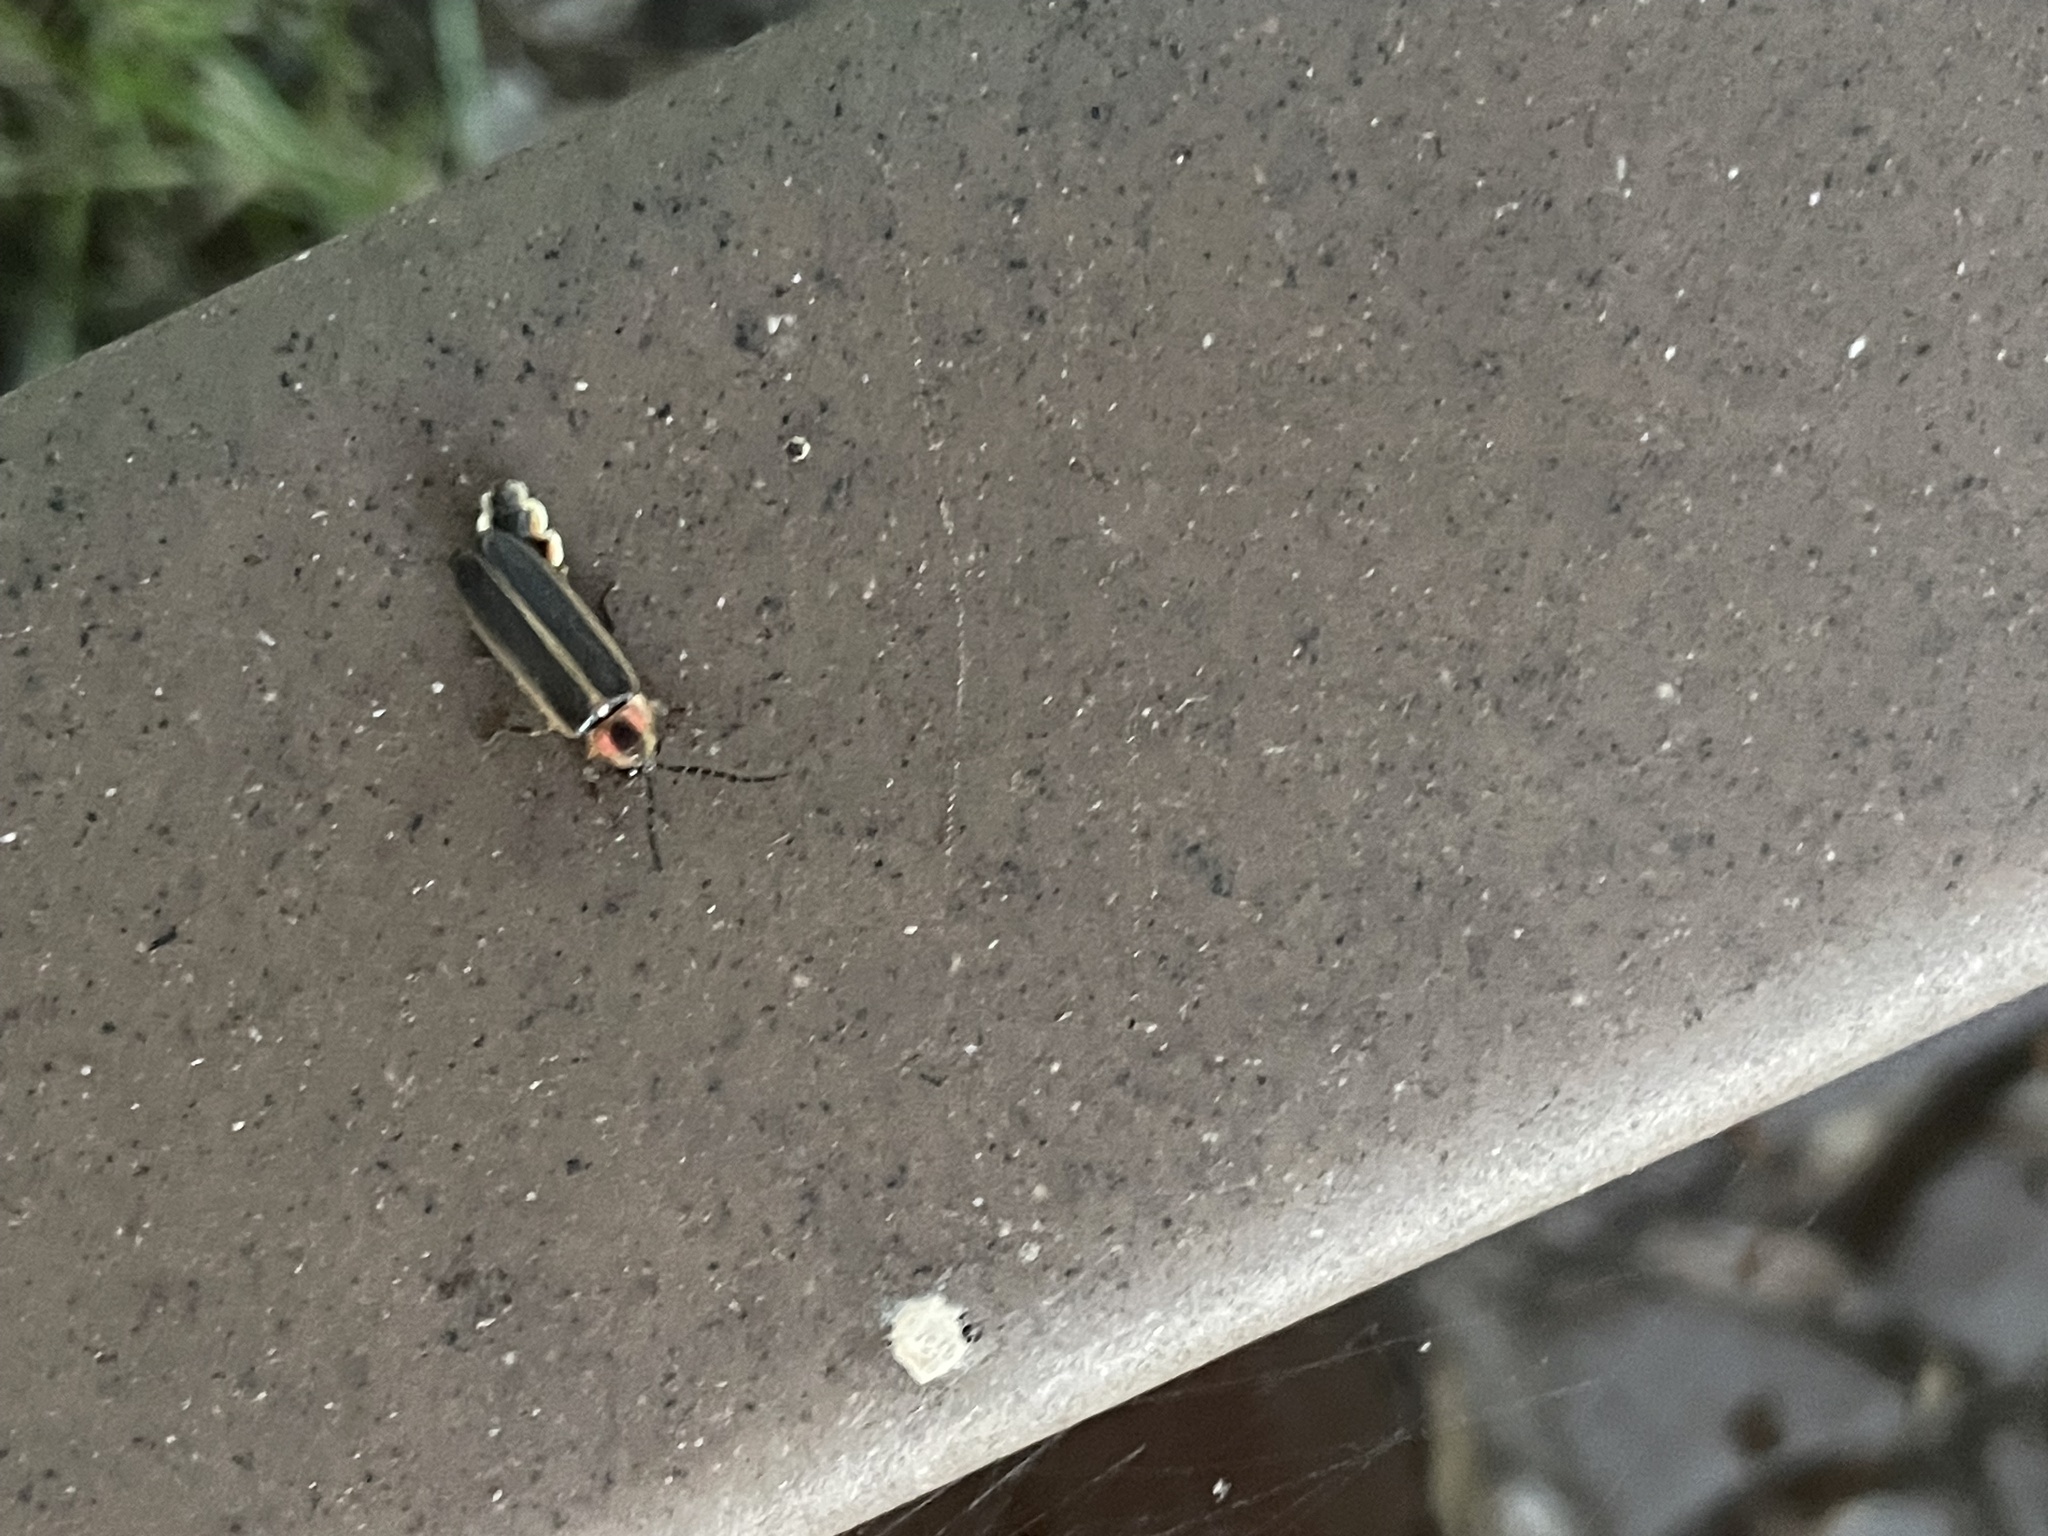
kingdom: Animalia
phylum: Arthropoda
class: Insecta
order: Coleoptera
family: Lampyridae
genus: Photinus
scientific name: Photinus pyralis
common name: Big dipper firefly
